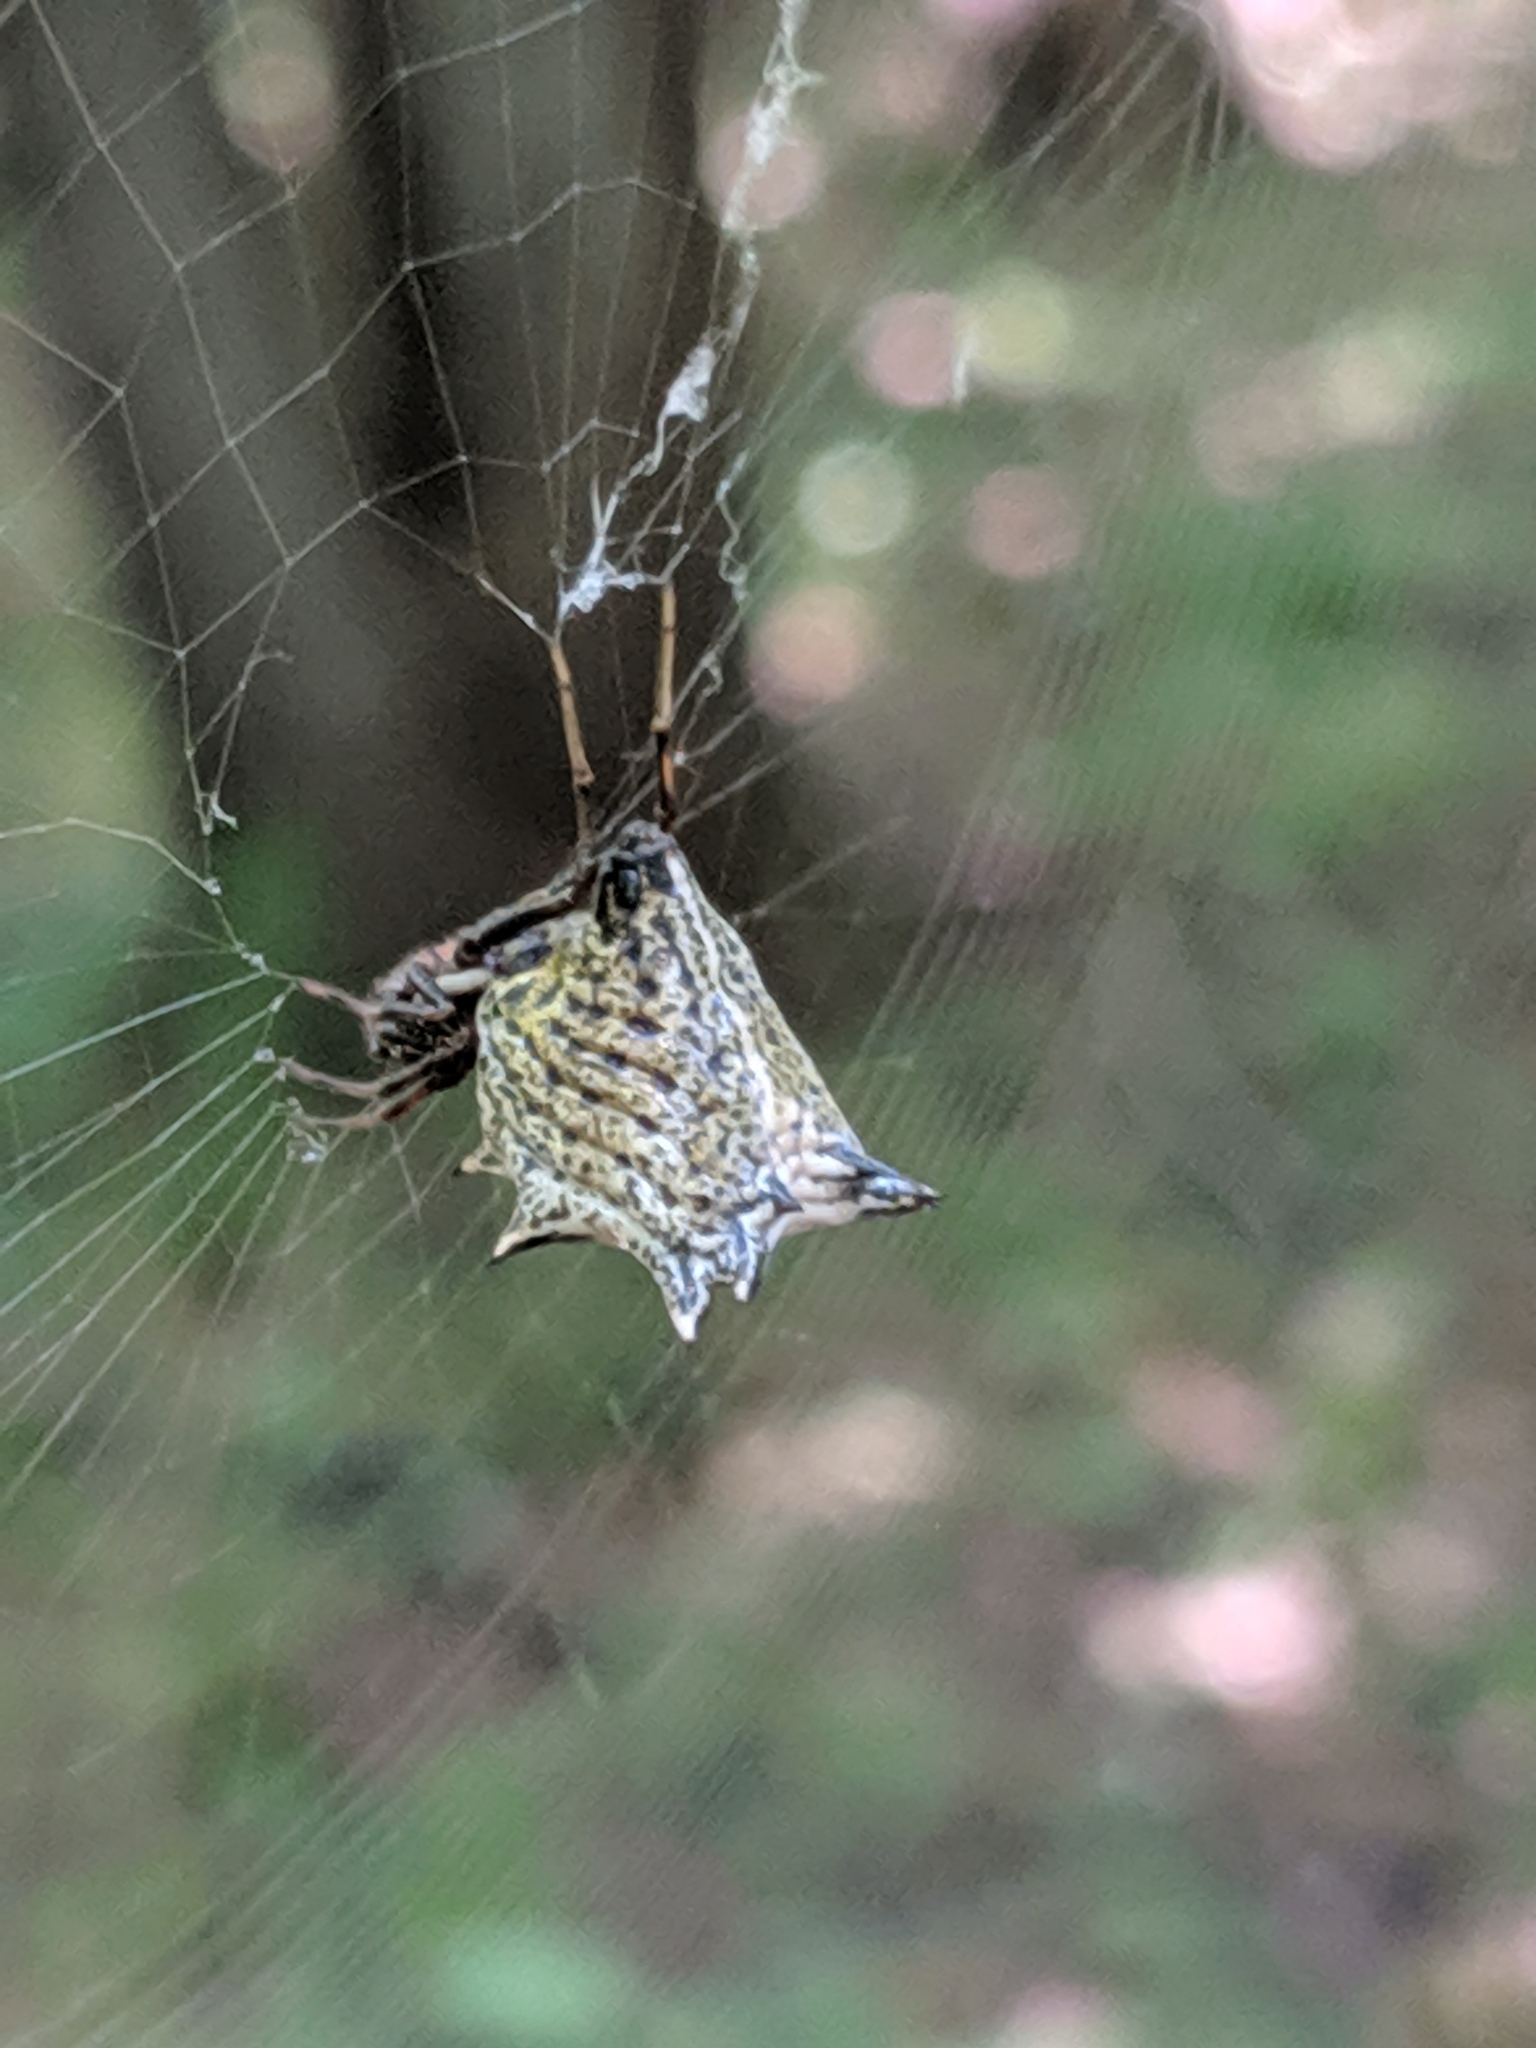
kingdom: Animalia
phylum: Arthropoda
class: Arachnida
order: Araneae
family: Araneidae
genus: Micrathena
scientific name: Micrathena gracilis
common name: Orb weavers
